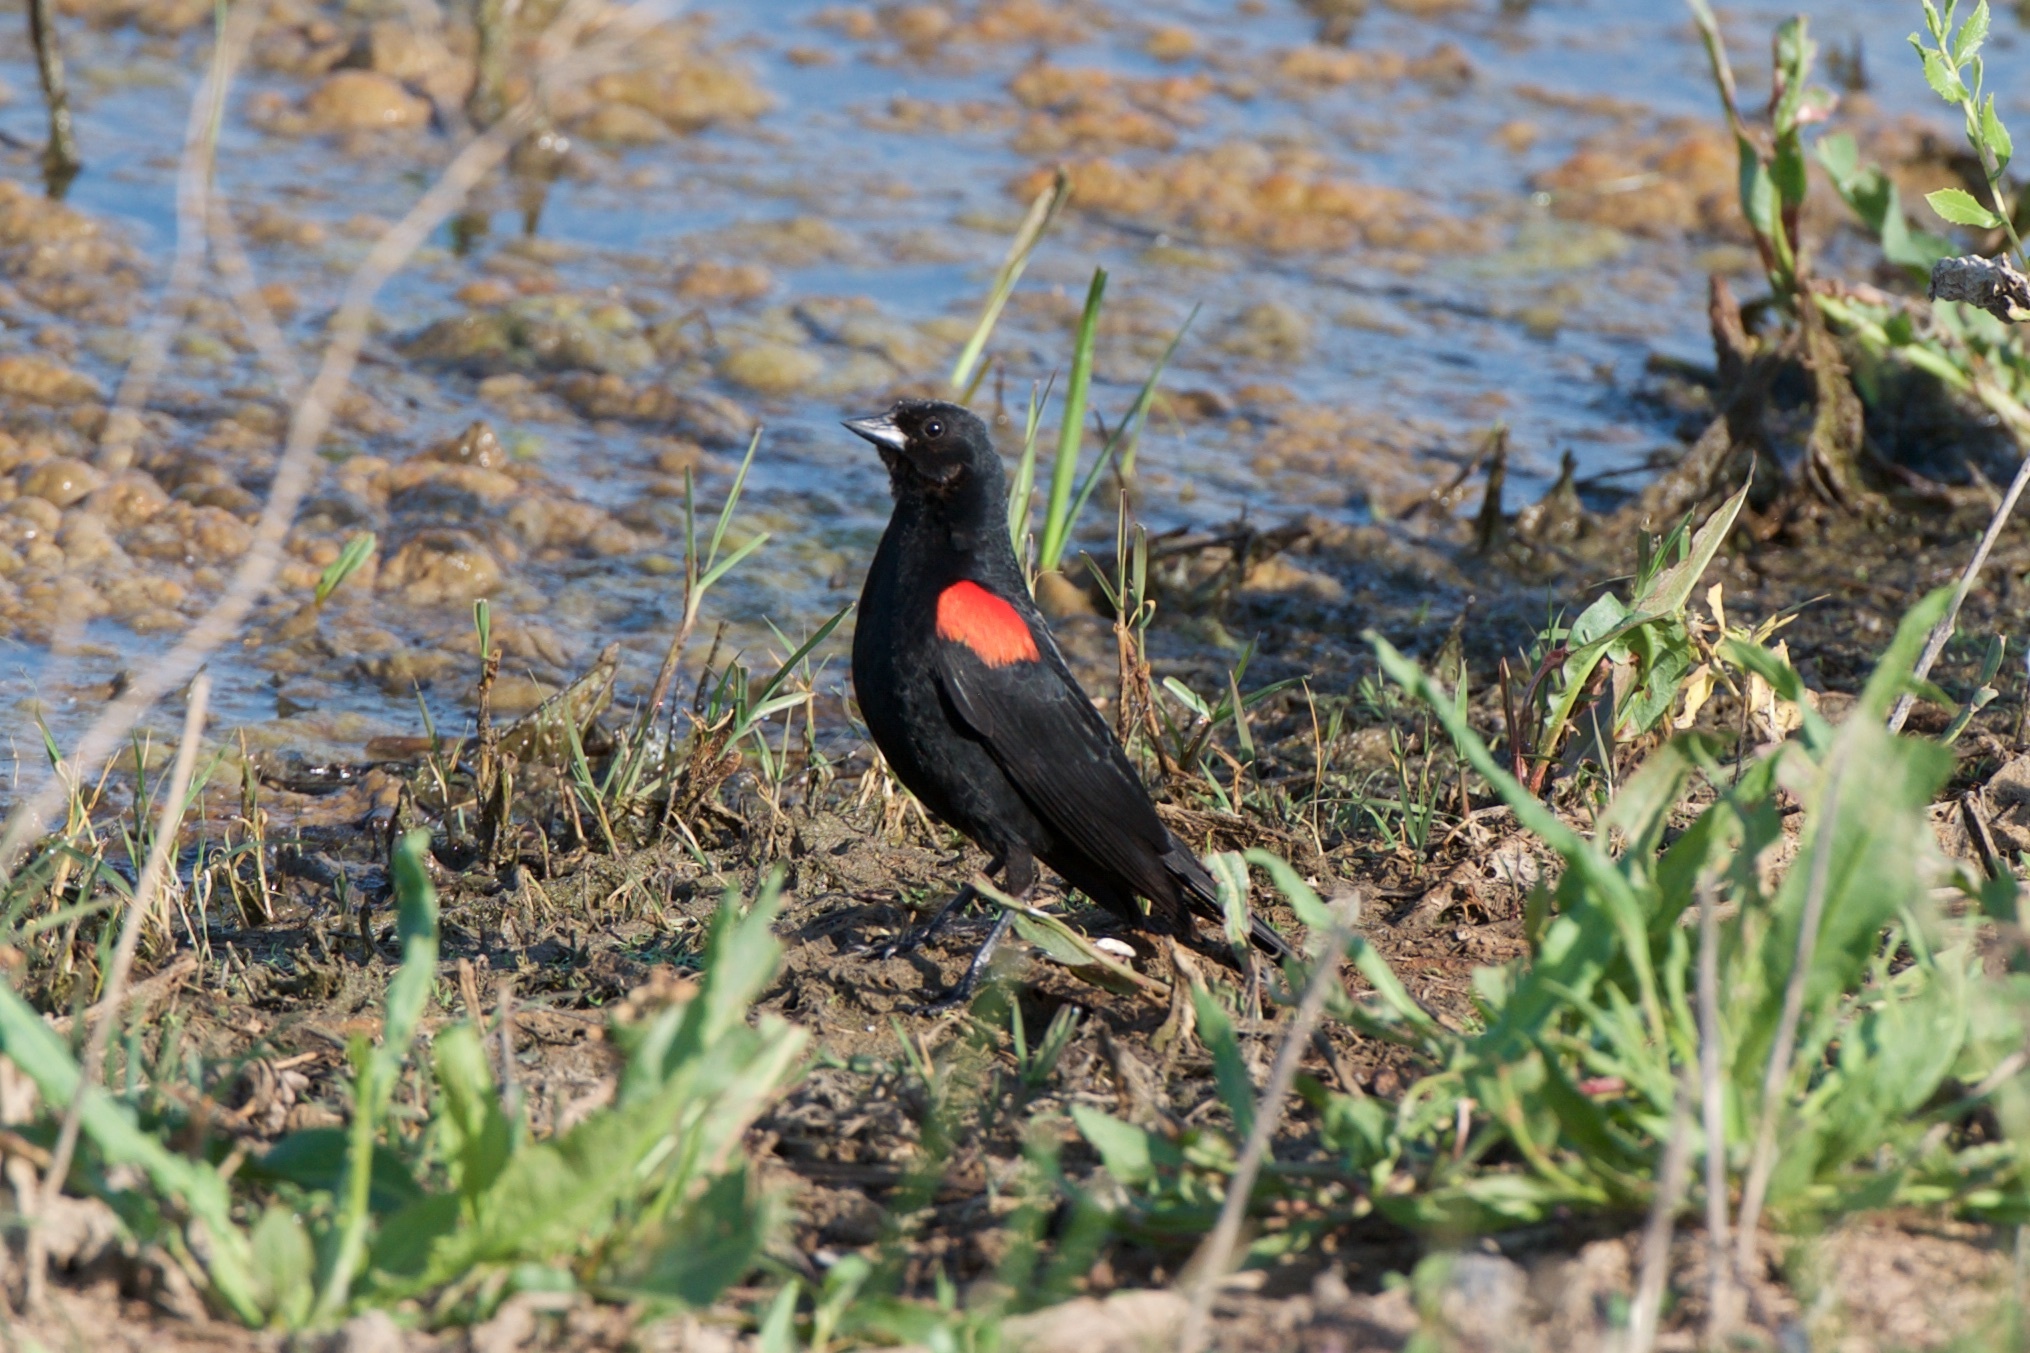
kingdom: Animalia
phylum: Chordata
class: Aves
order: Passeriformes
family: Icteridae
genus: Agelaius
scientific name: Agelaius phoeniceus
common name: Red-winged blackbird
